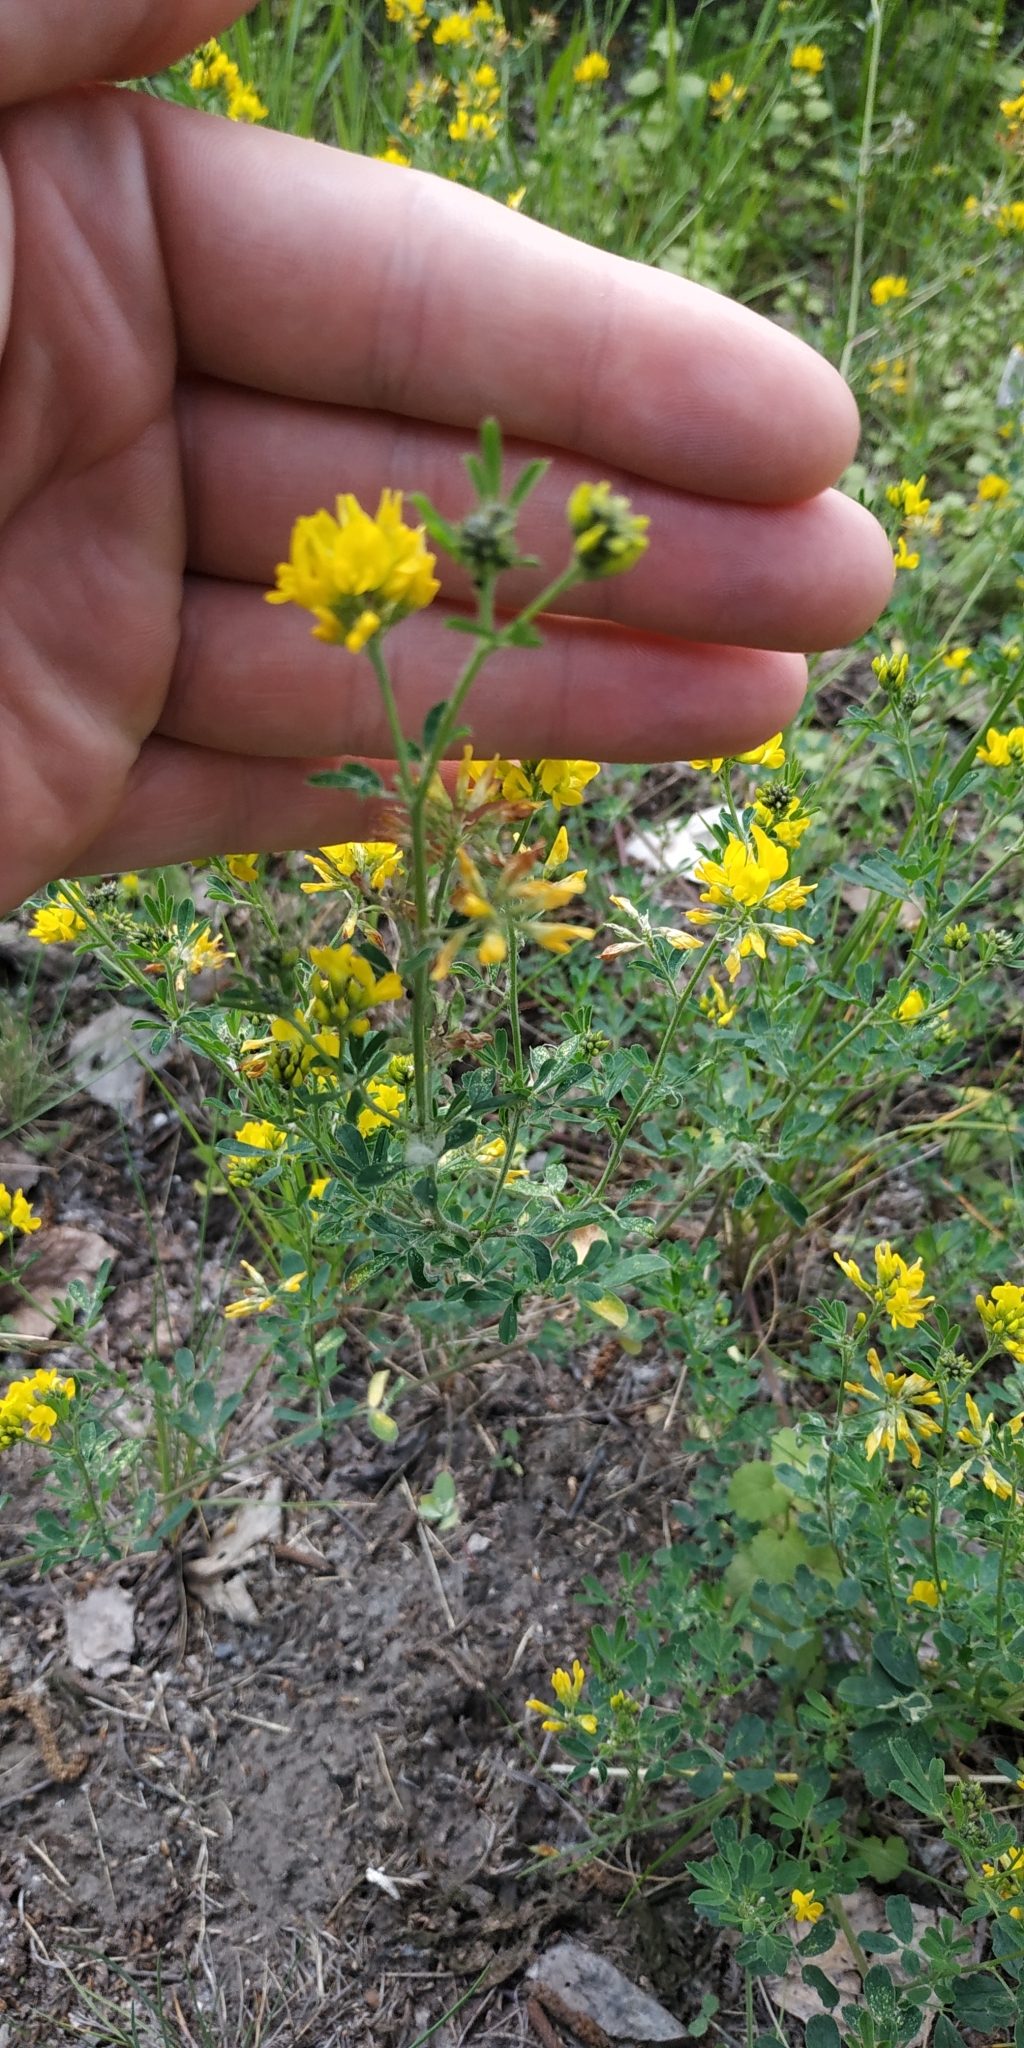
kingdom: Plantae
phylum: Tracheophyta
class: Magnoliopsida
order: Fabales
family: Fabaceae
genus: Medicago
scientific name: Medicago falcata
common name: Sickle medick
